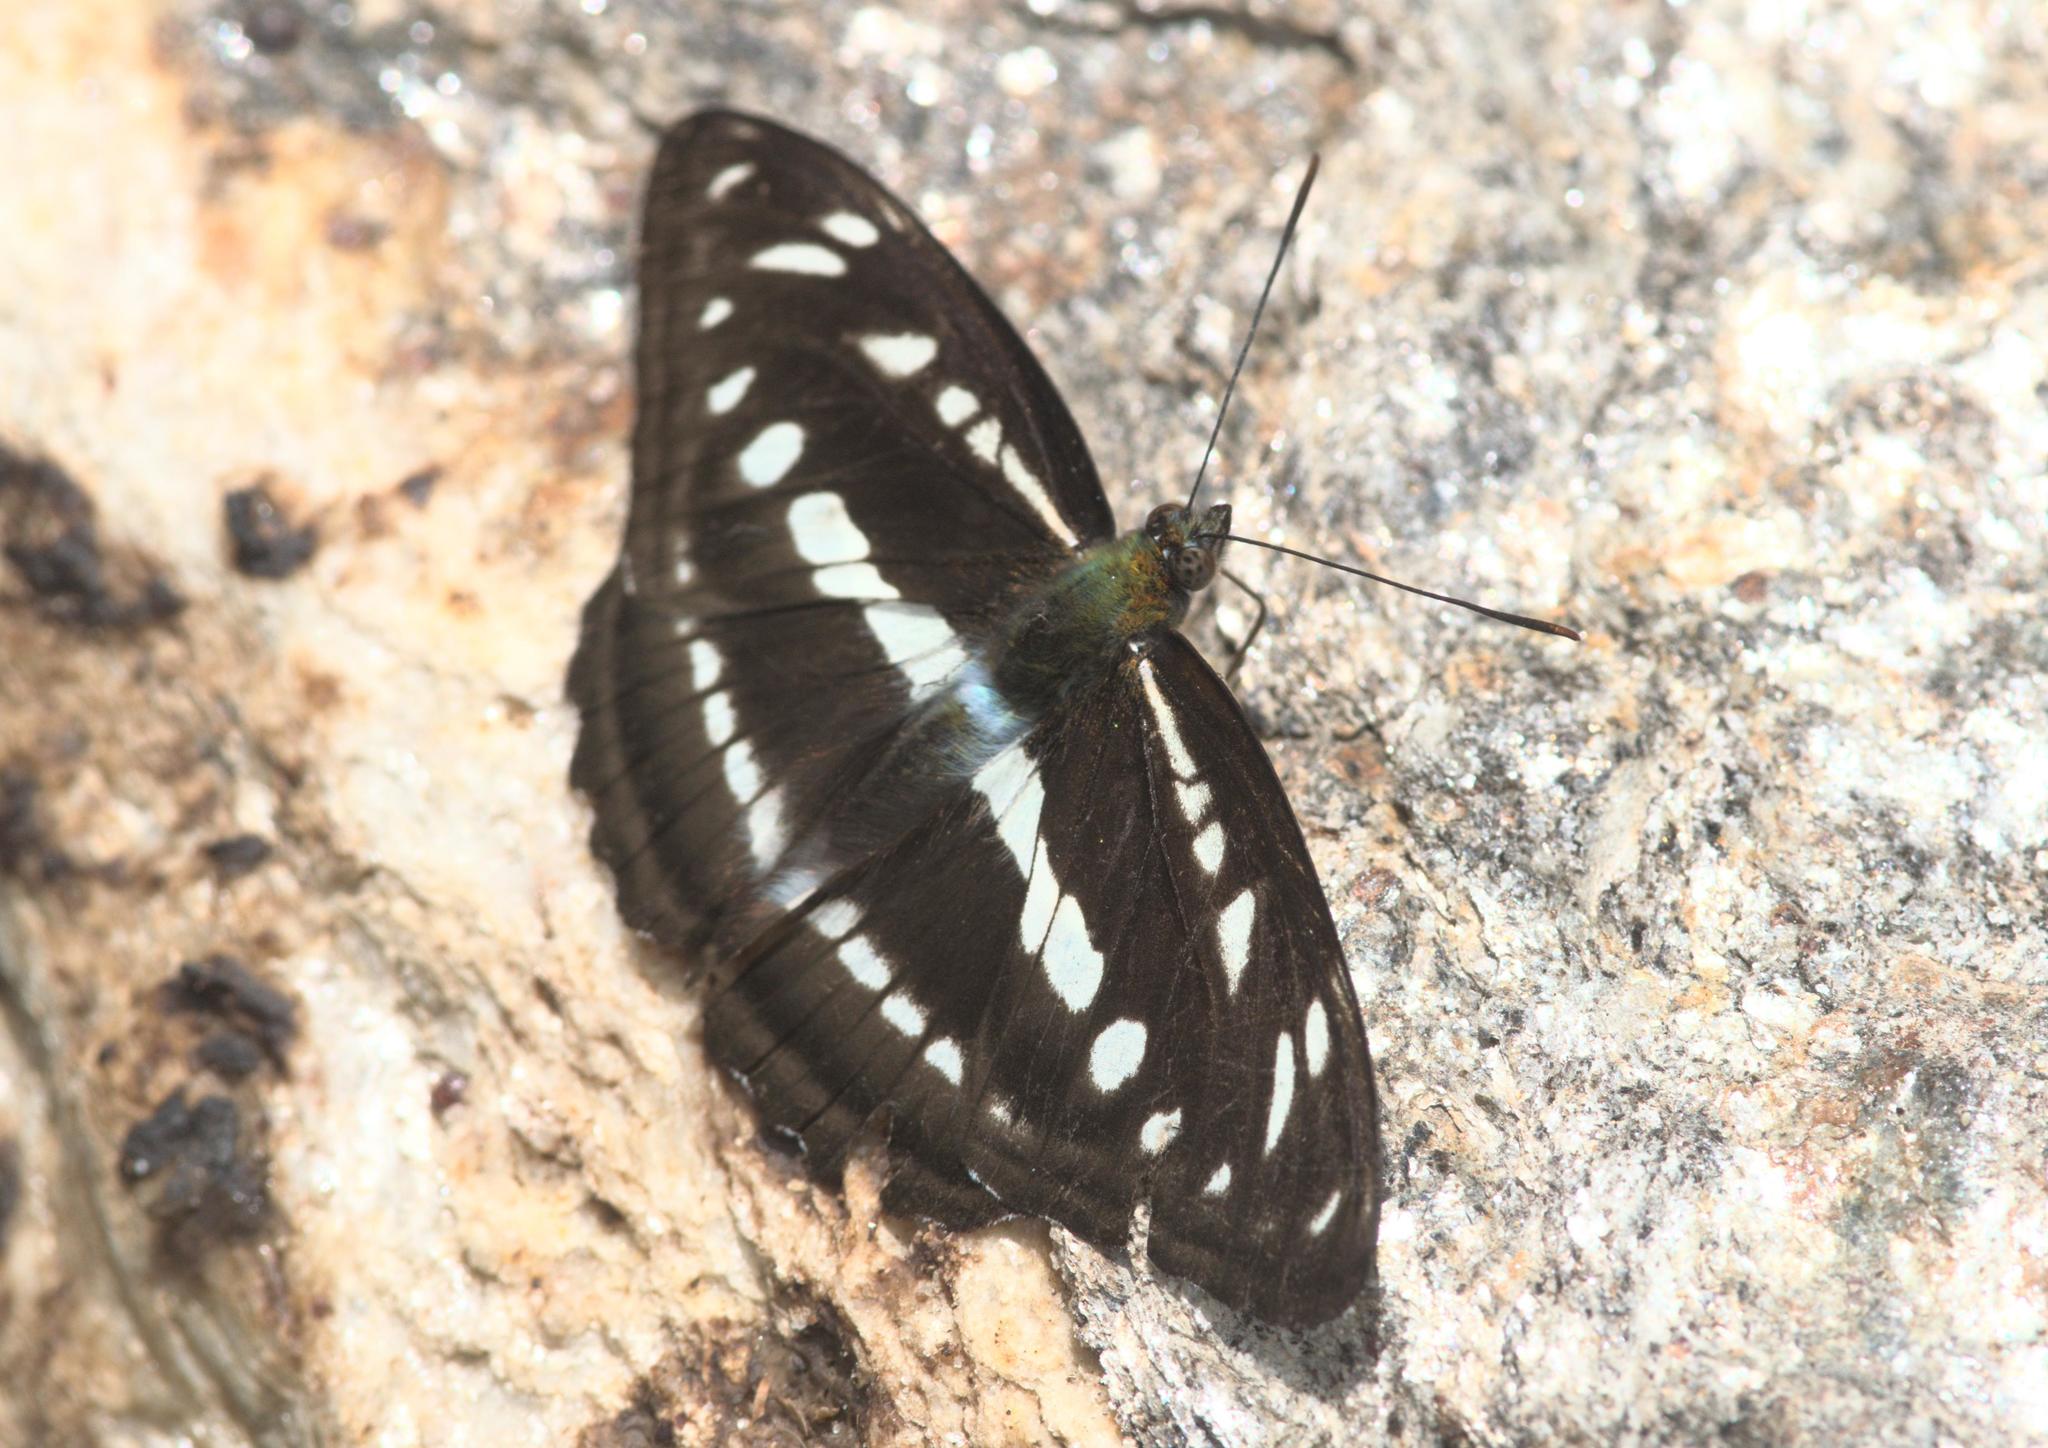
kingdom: Animalia
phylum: Arthropoda
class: Insecta
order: Lepidoptera
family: Nymphalidae
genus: Parathyma
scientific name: Parathyma opalina
